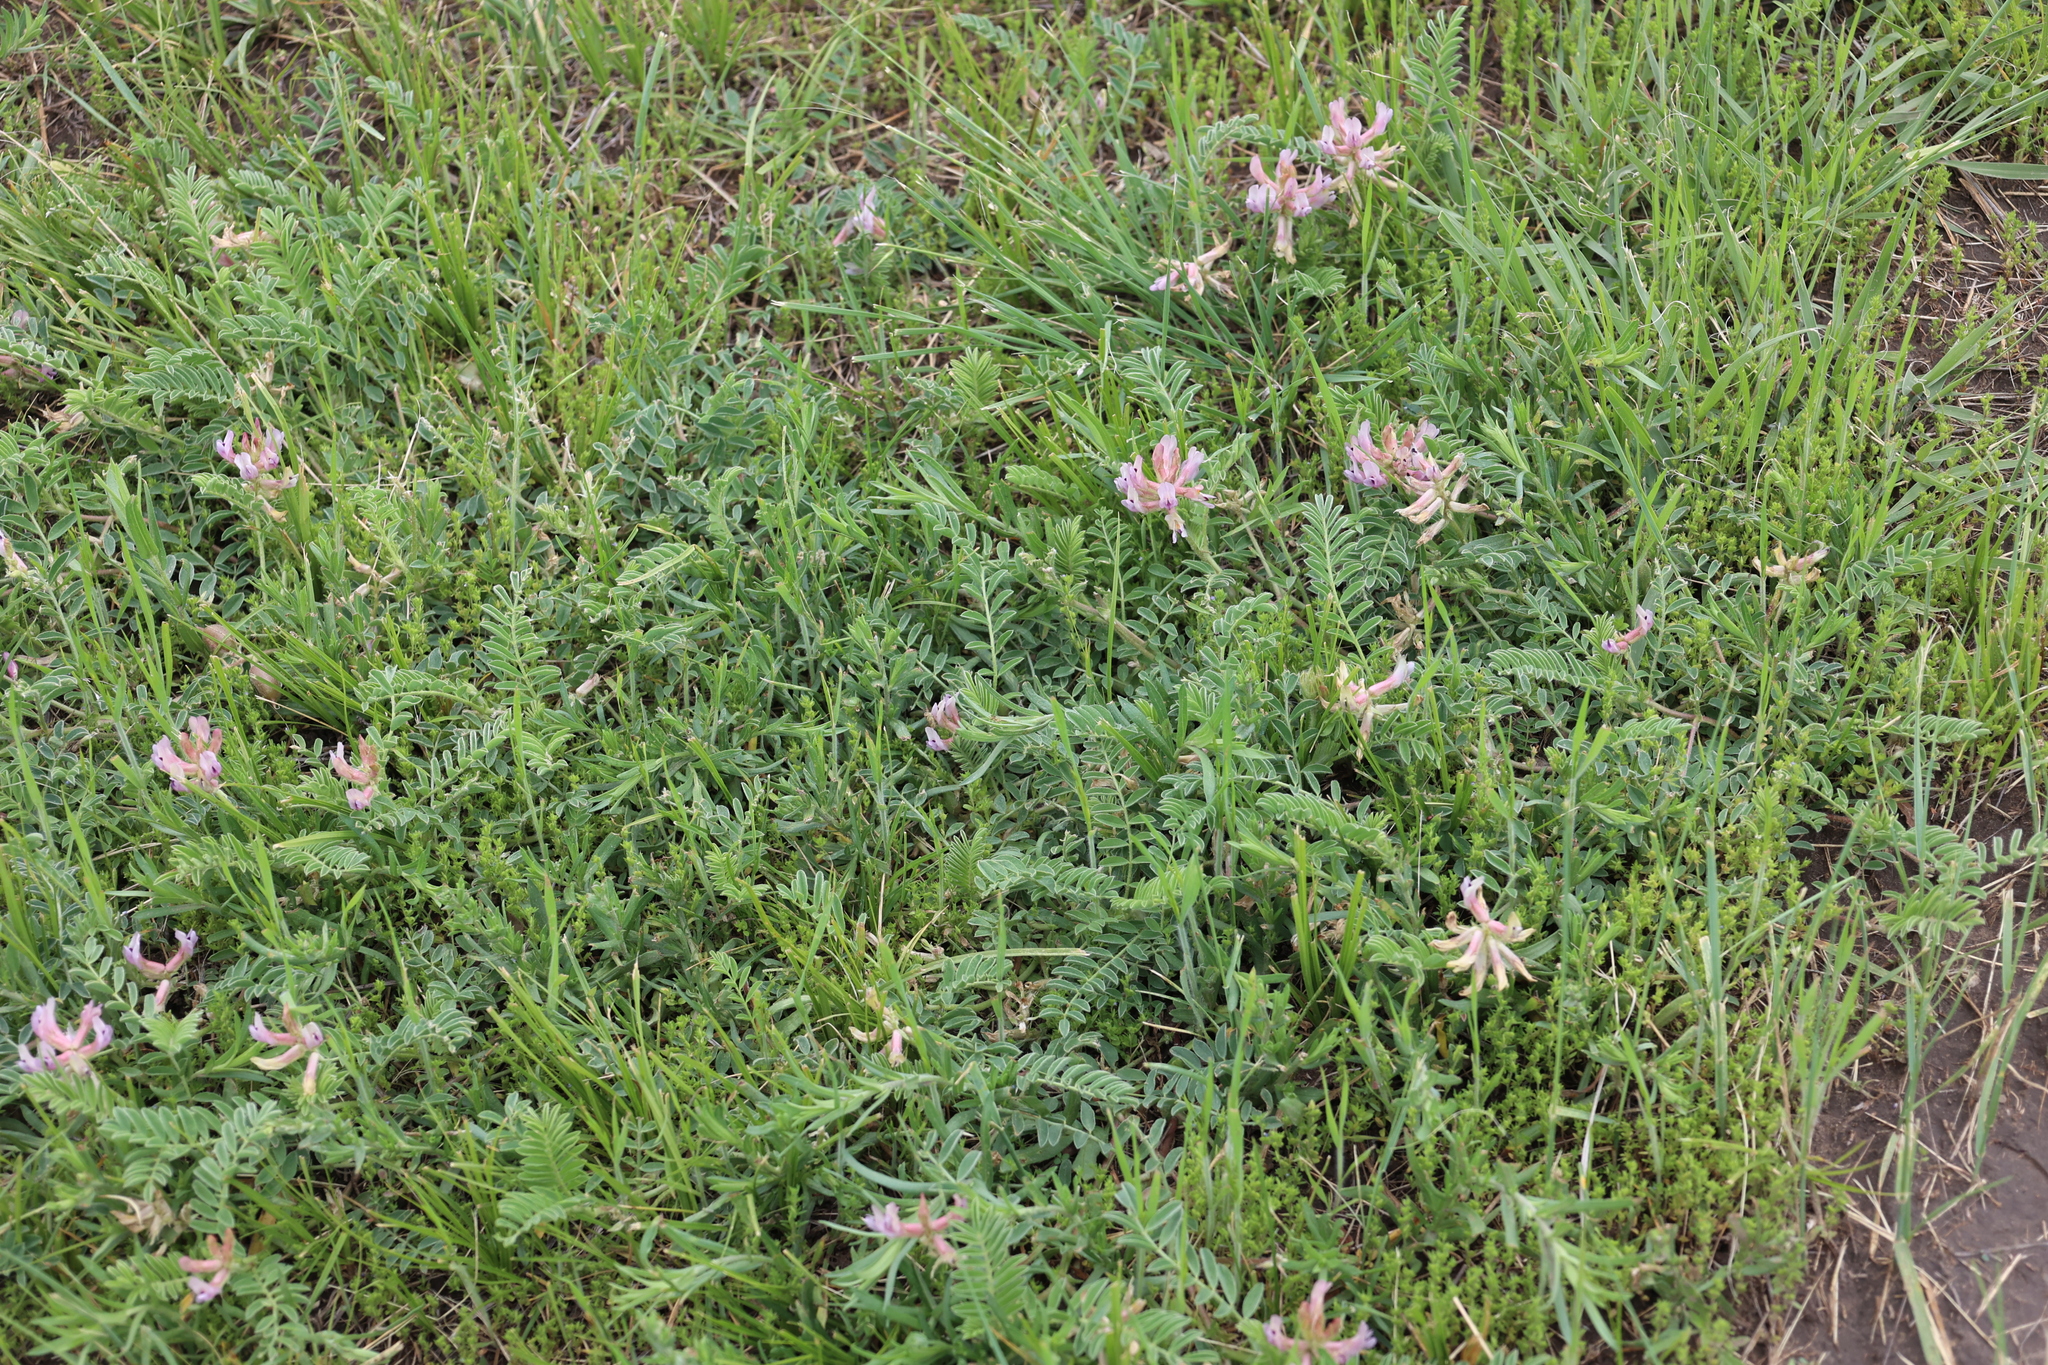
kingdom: Plantae
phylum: Tracheophyta
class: Magnoliopsida
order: Fabales
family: Fabaceae
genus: Astragalus
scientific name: Astragalus plattensis
